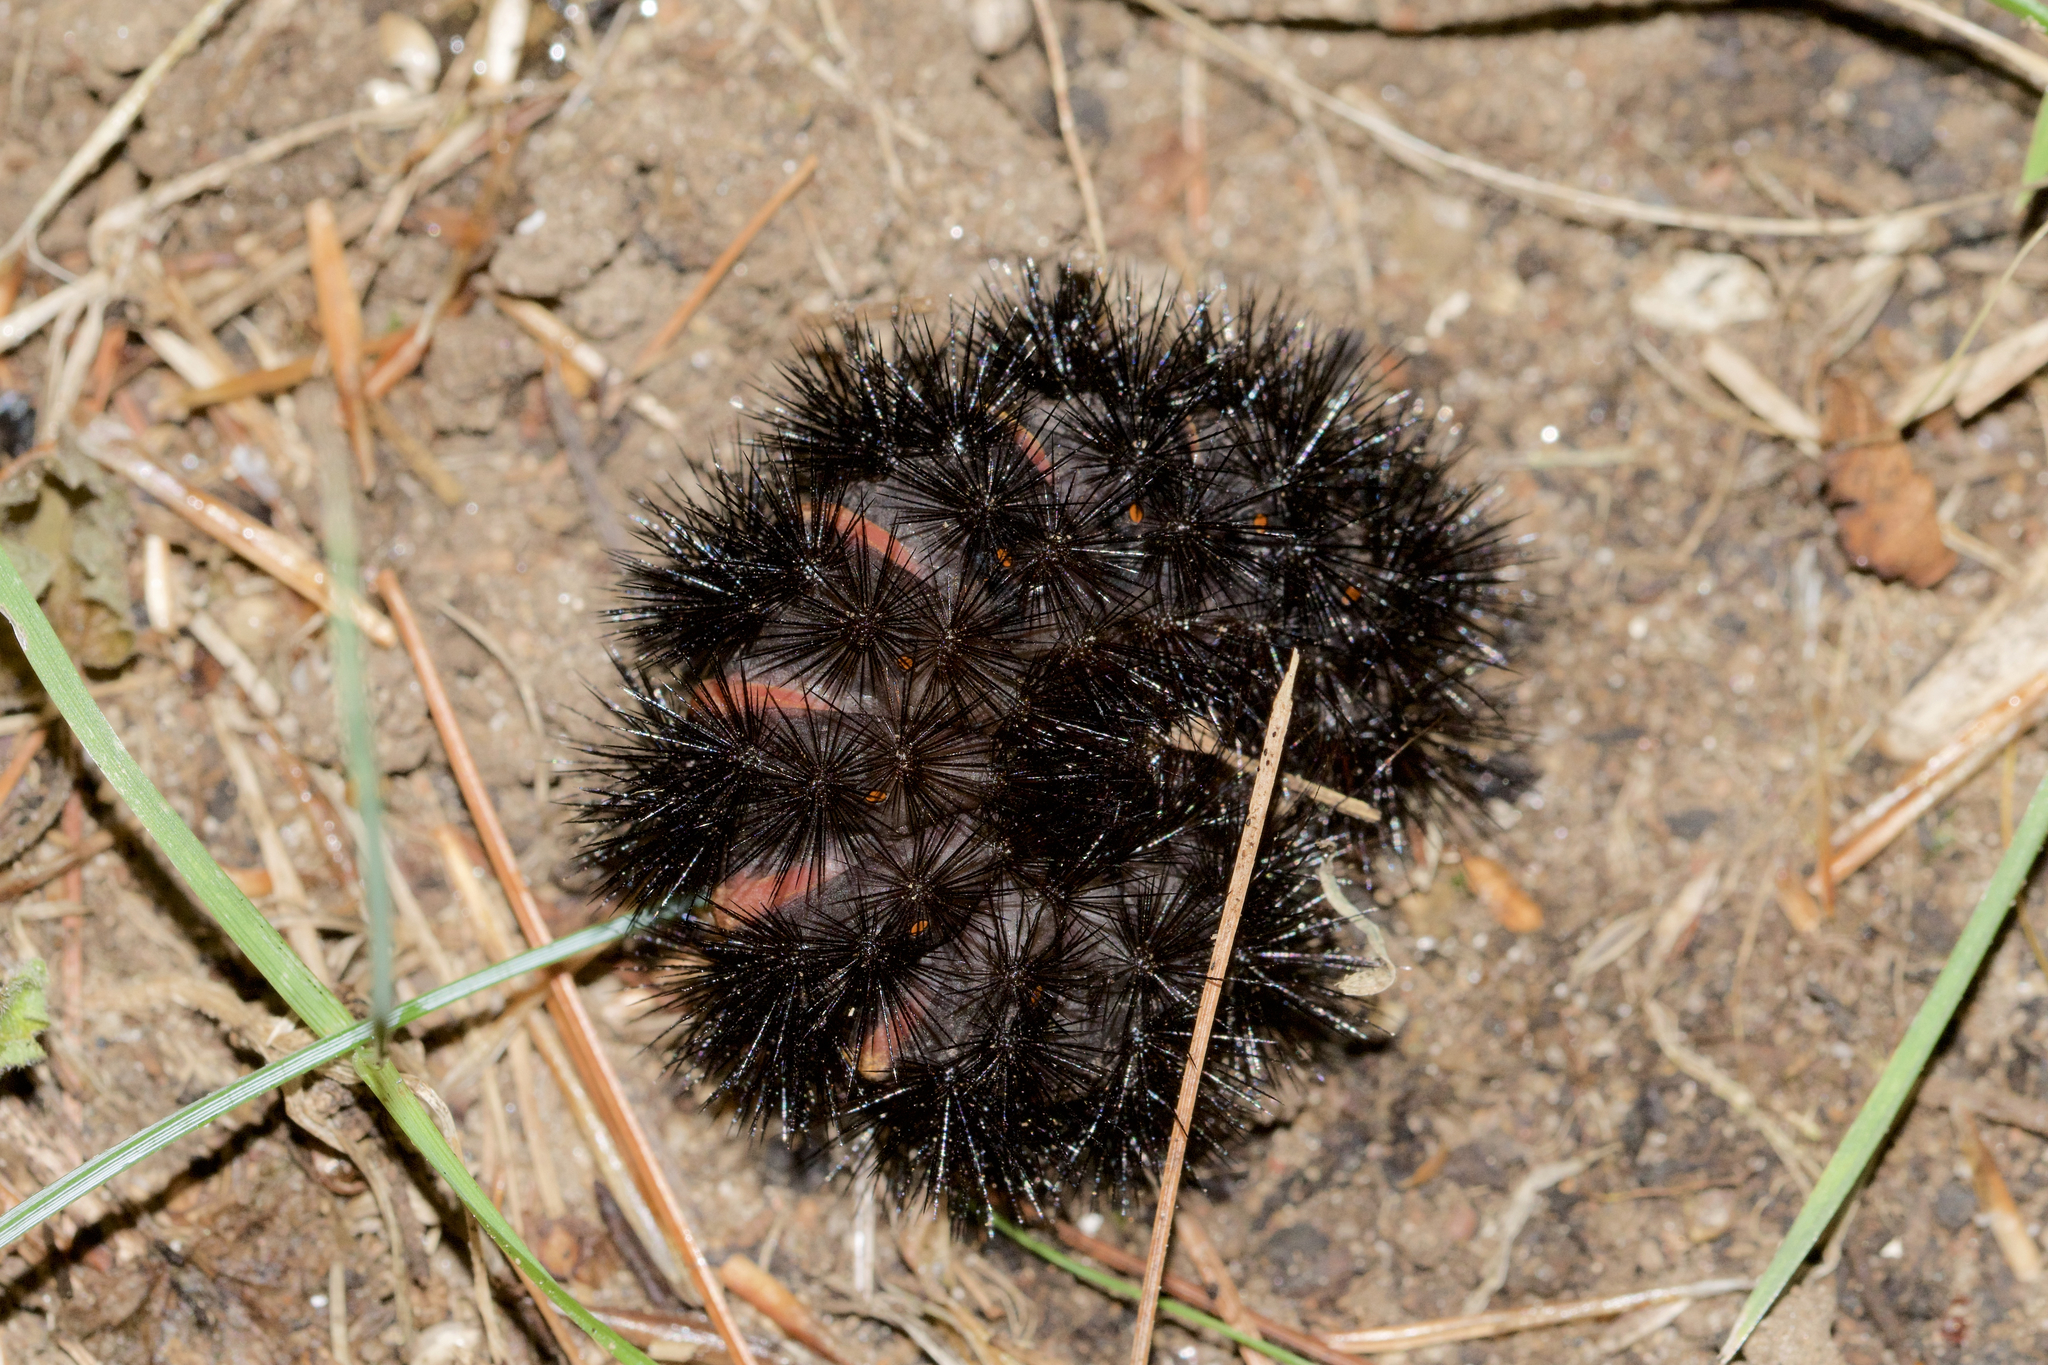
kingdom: Animalia
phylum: Arthropoda
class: Insecta
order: Lepidoptera
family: Erebidae
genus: Hypercompe
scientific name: Hypercompe scribonia
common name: Giant leopard moth
